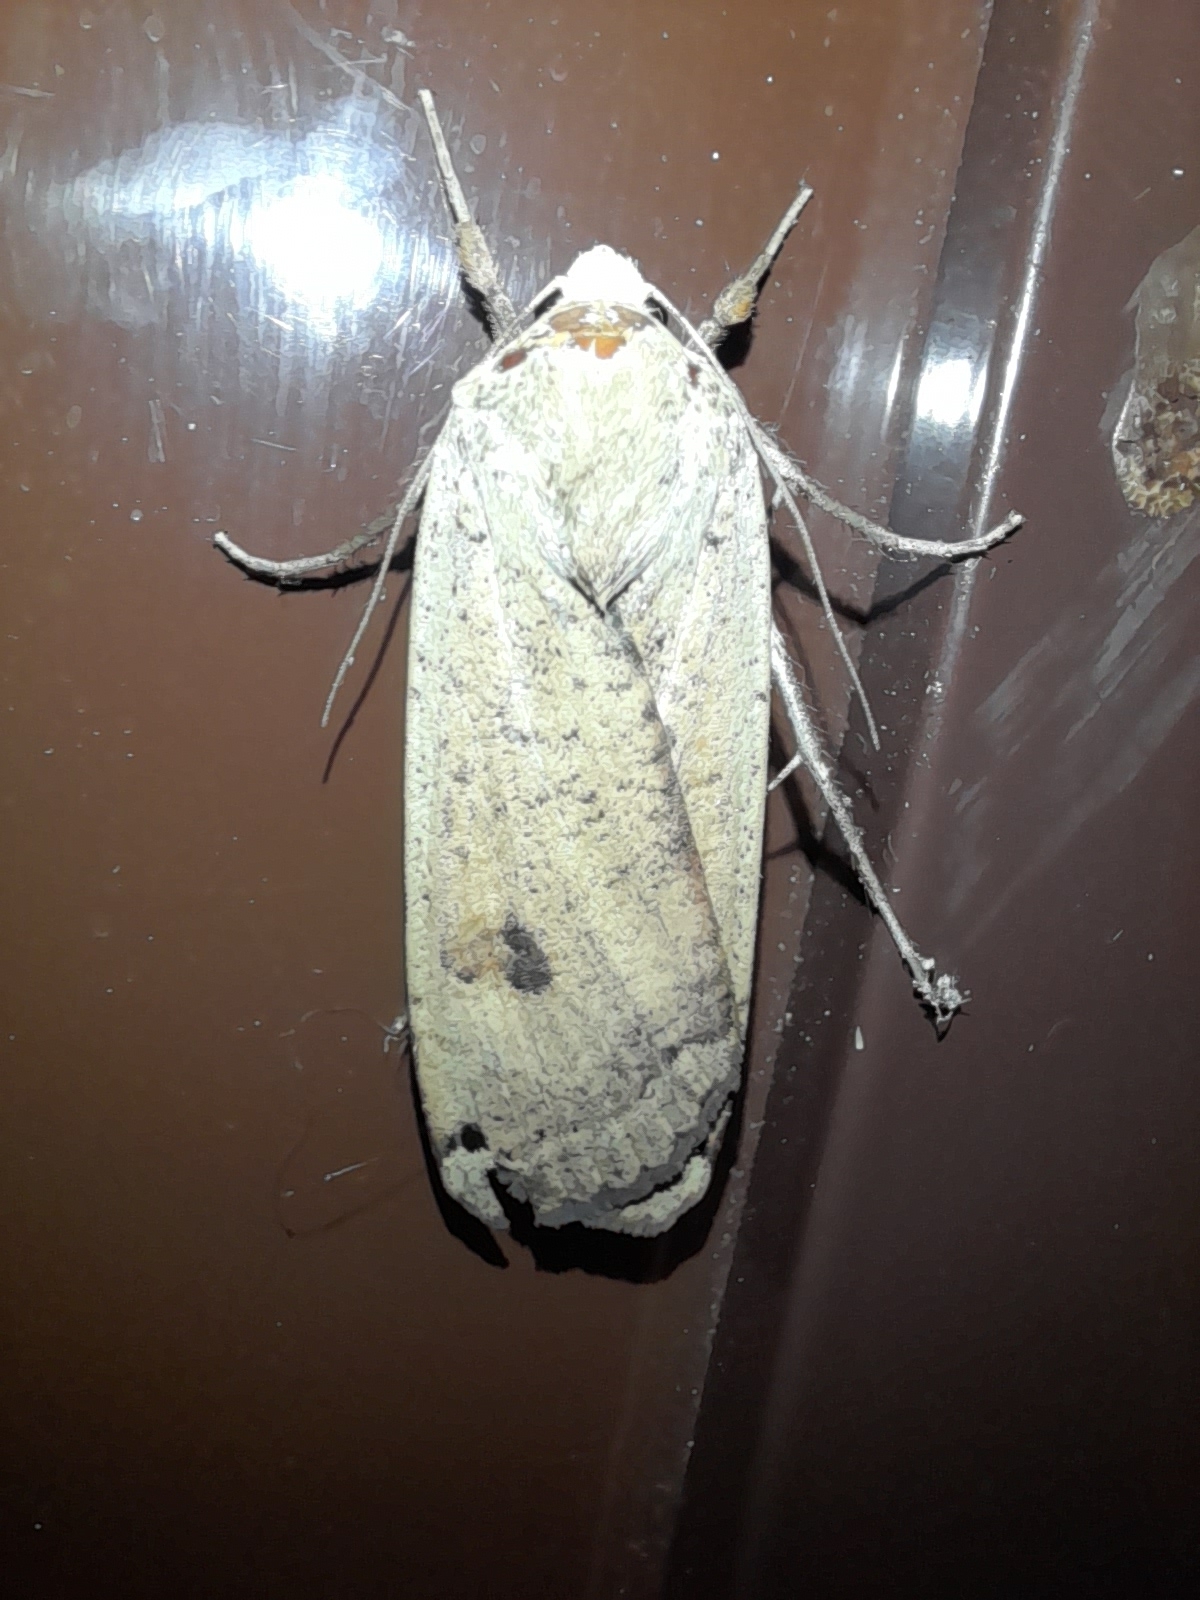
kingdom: Animalia
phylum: Arthropoda
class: Insecta
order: Lepidoptera
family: Noctuidae
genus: Noctua
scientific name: Noctua pronuba
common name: Large yellow underwing
